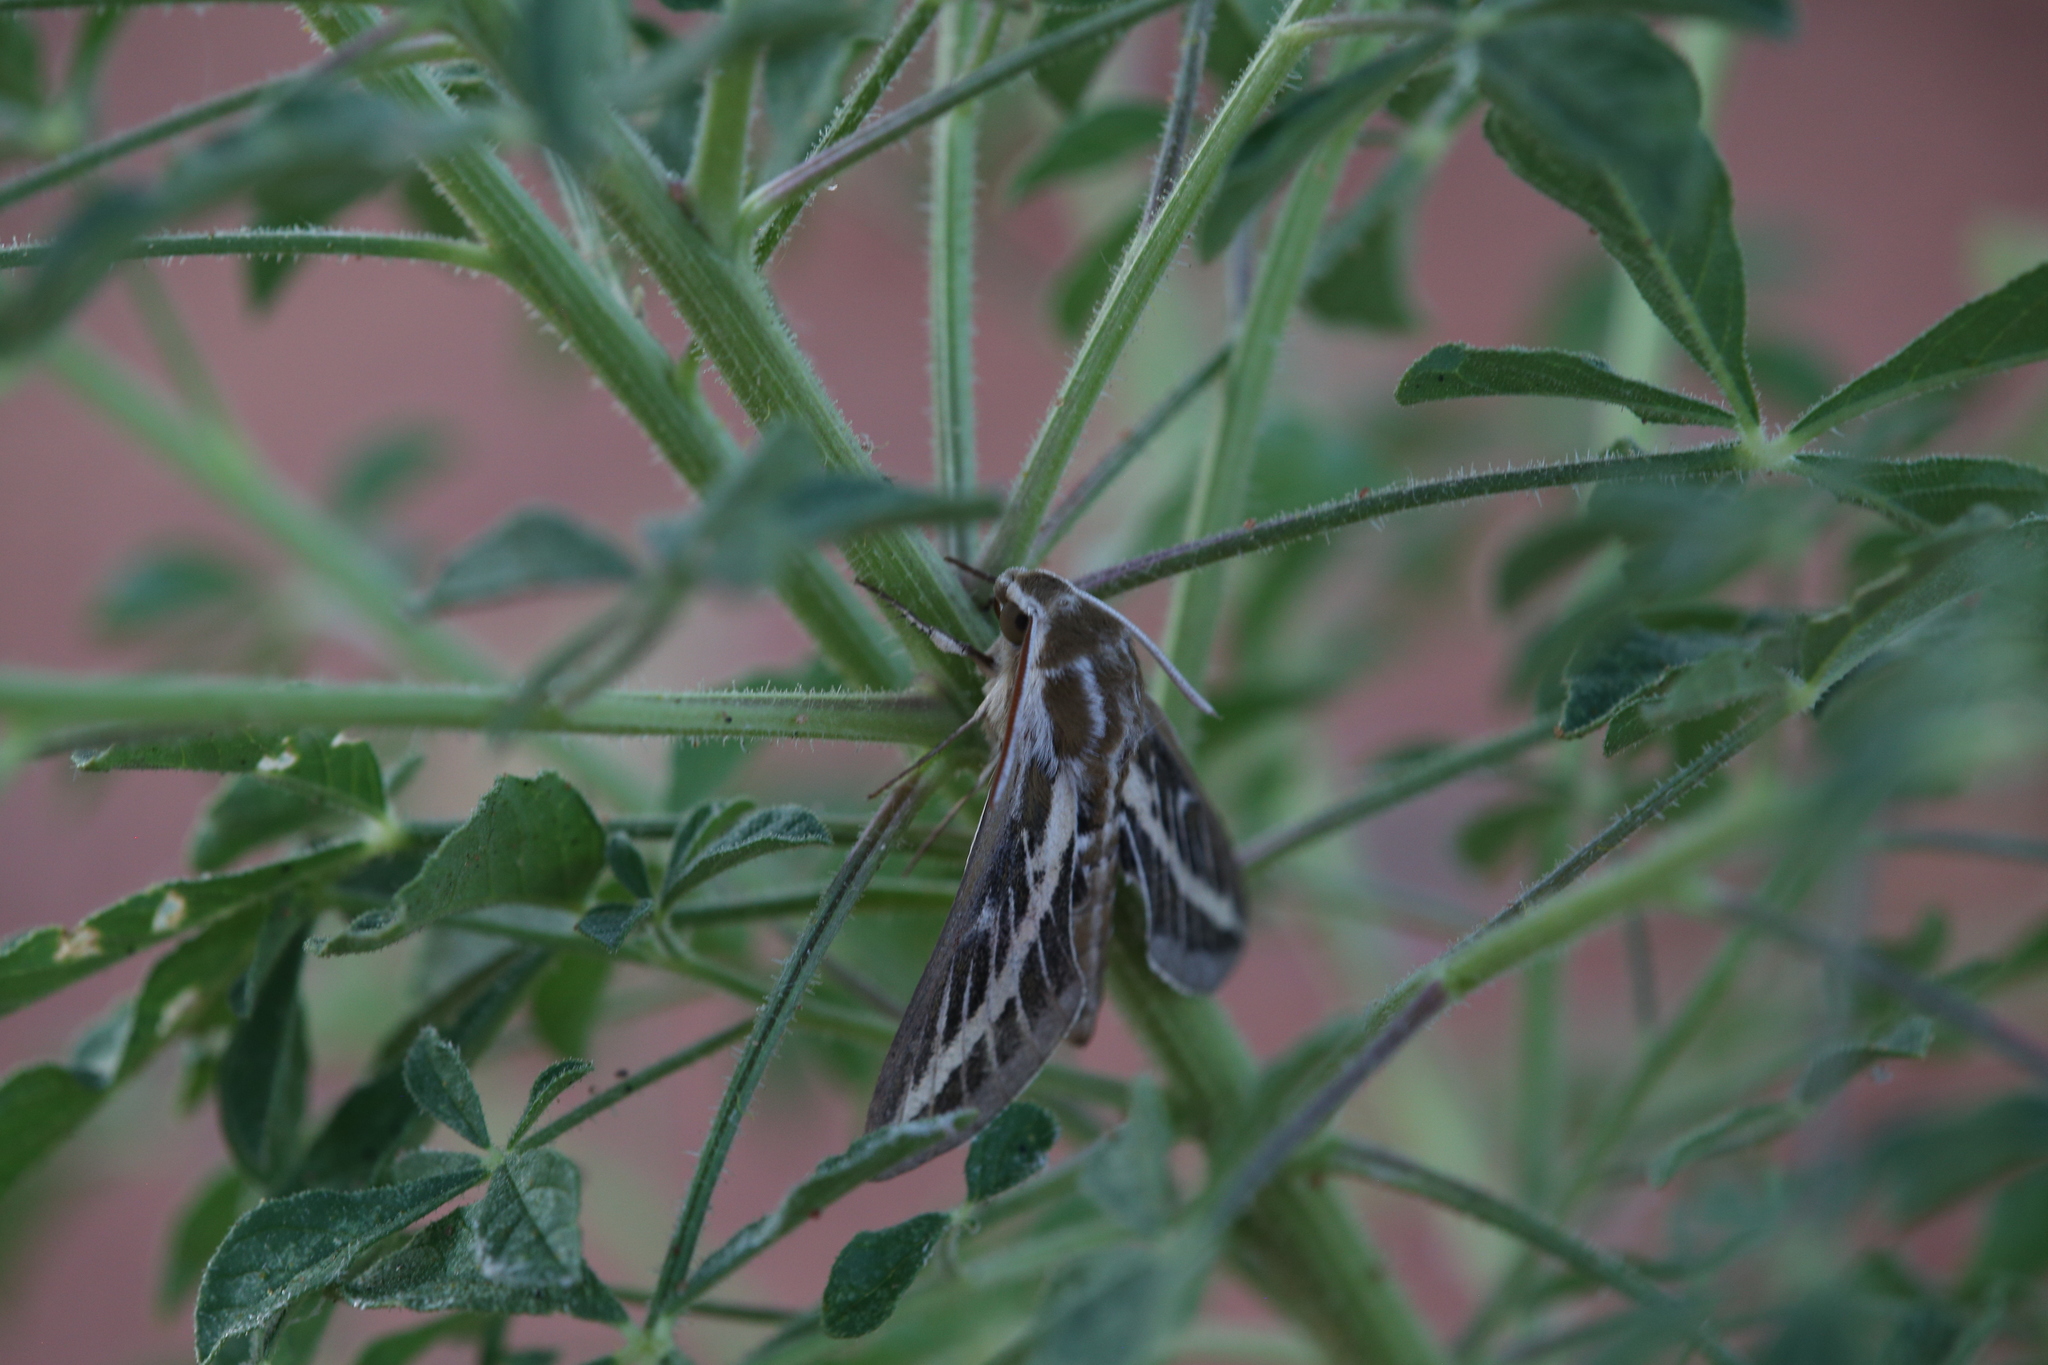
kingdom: Animalia
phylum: Arthropoda
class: Insecta
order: Lepidoptera
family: Sphingidae
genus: Hyles
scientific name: Hyles livornicoides
